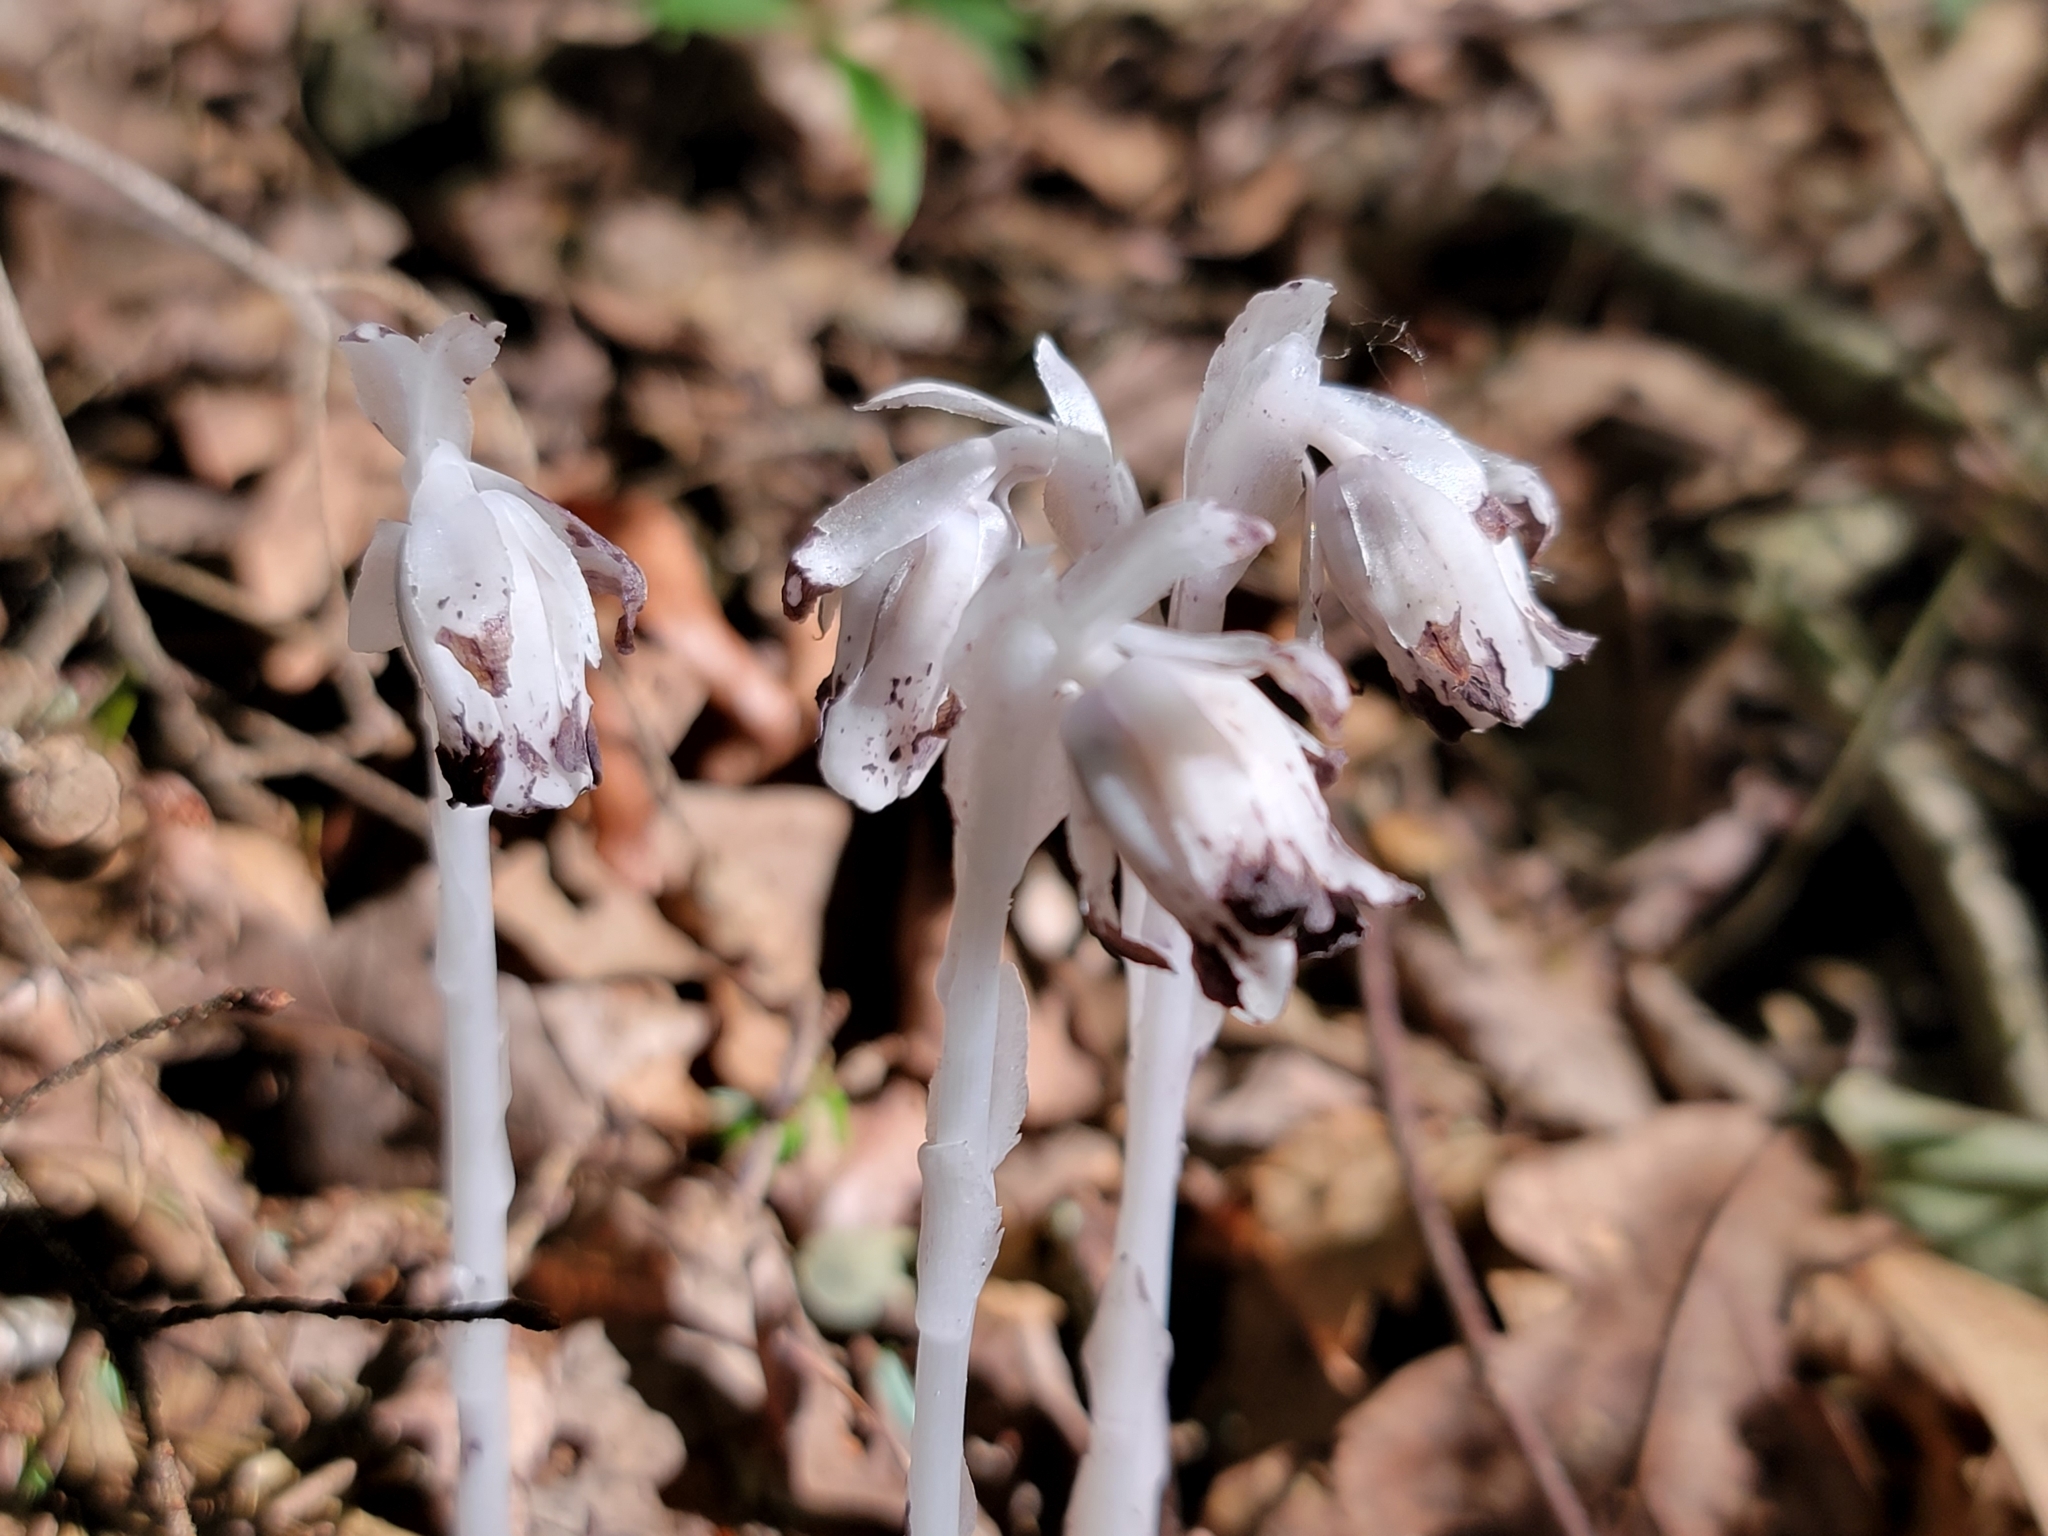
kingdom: Plantae
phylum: Tracheophyta
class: Magnoliopsida
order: Ericales
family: Ericaceae
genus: Monotropa
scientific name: Monotropa uniflora
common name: Convulsion root
